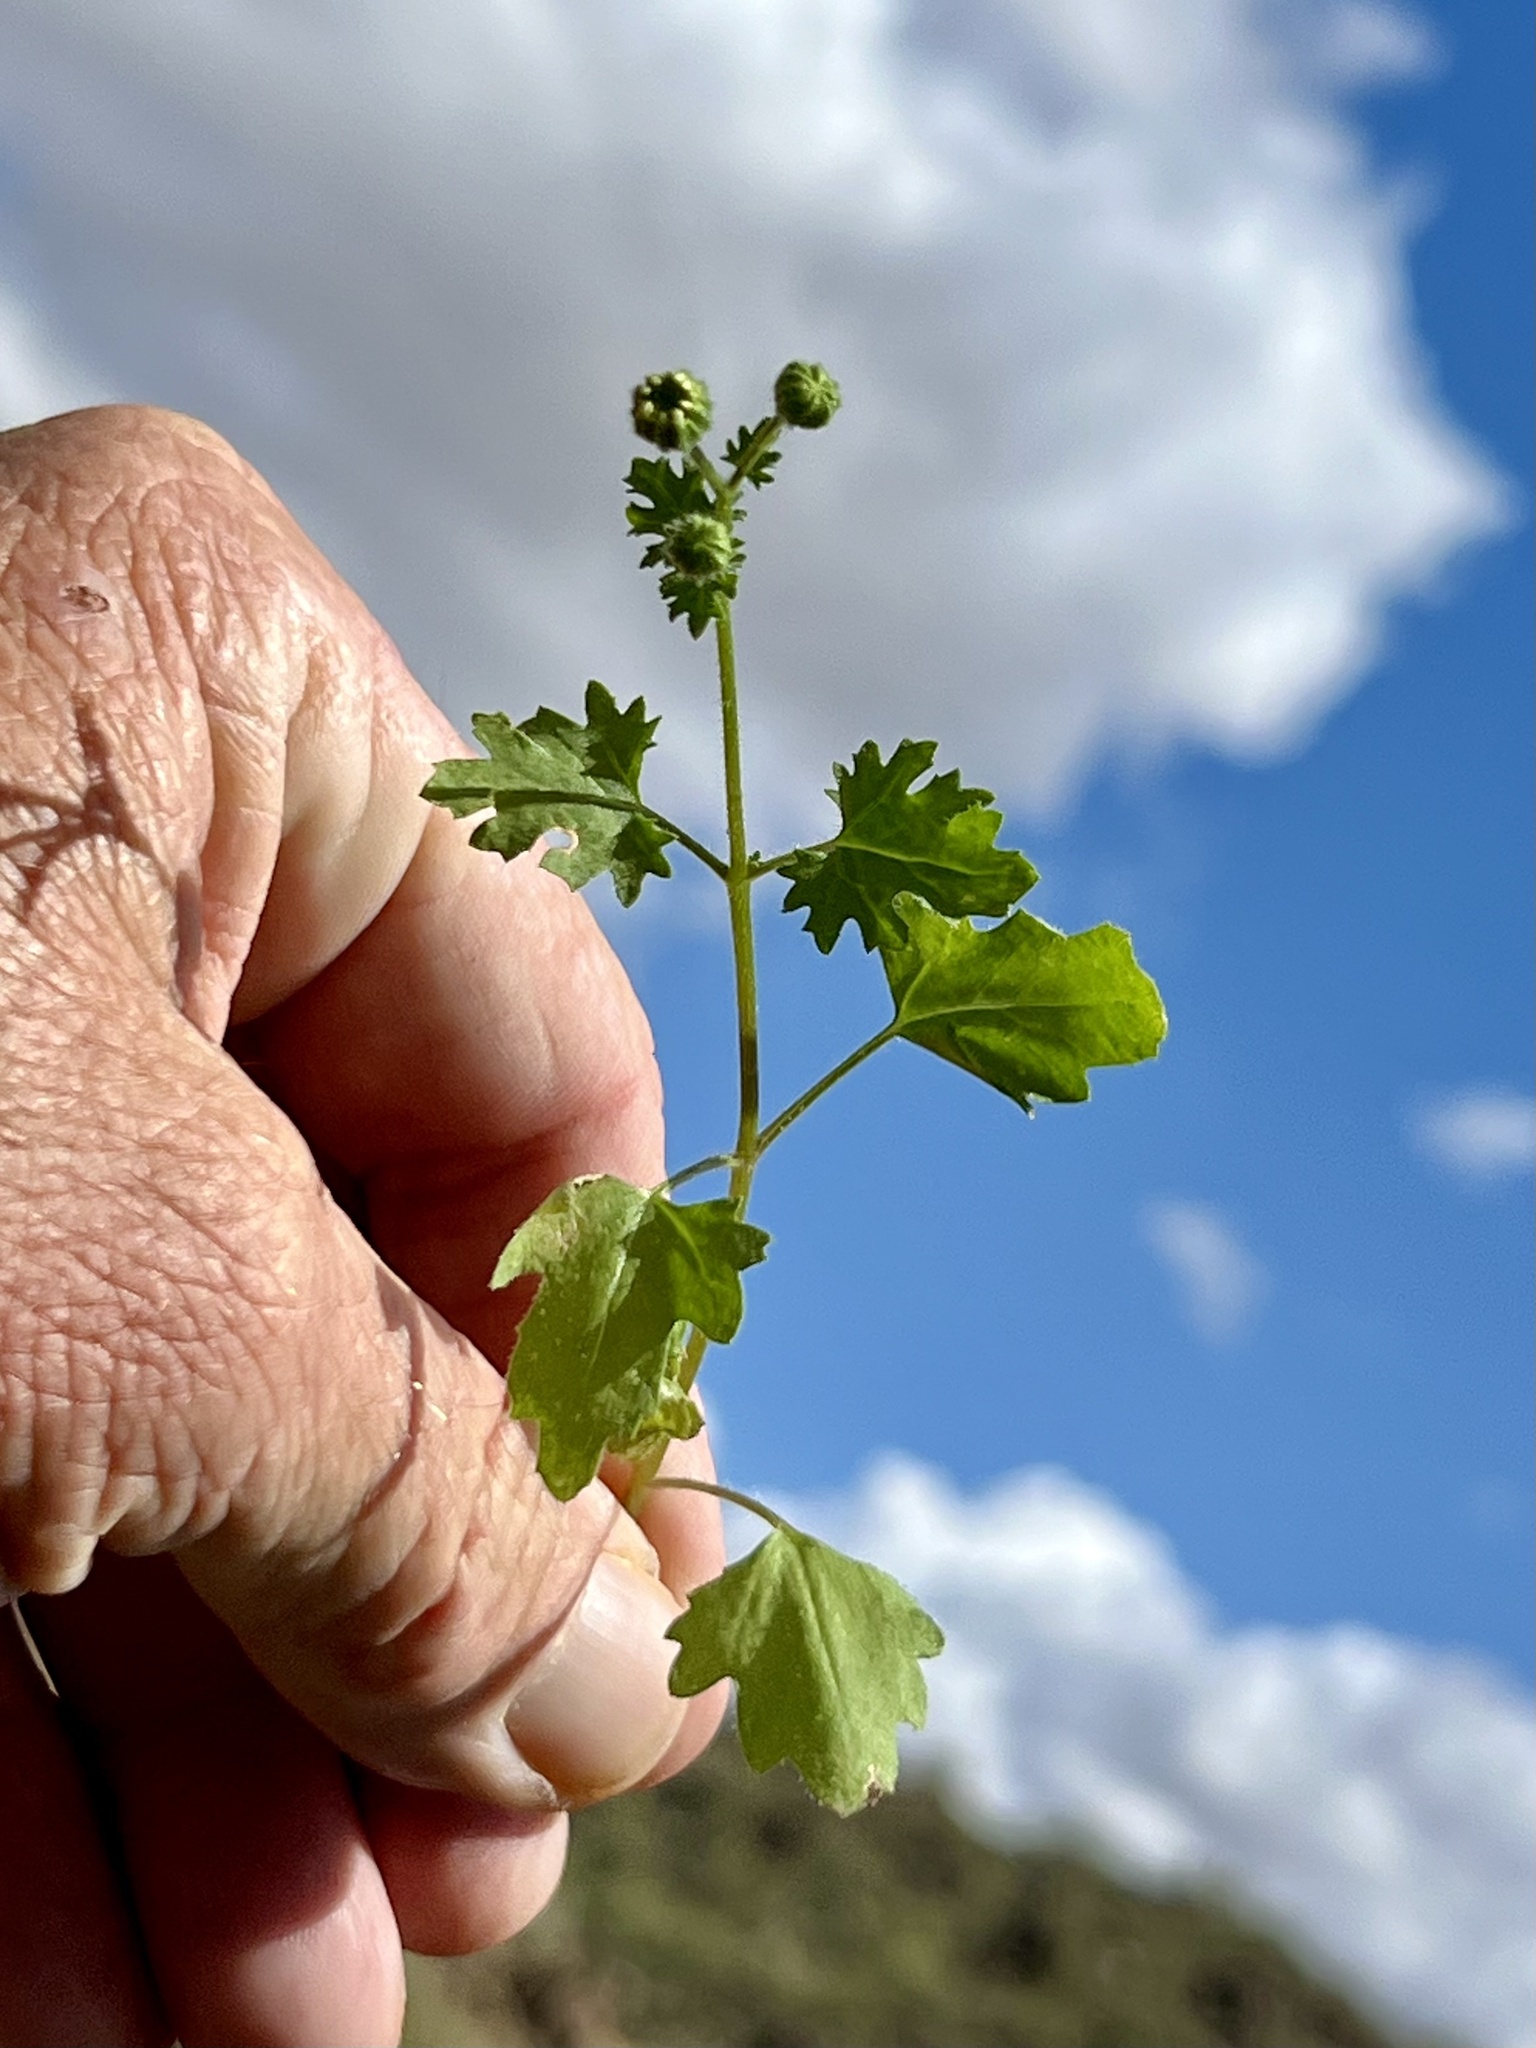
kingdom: Plantae
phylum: Tracheophyta
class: Magnoliopsida
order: Asterales
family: Asteraceae
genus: Laphamia
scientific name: Laphamia emoryi
